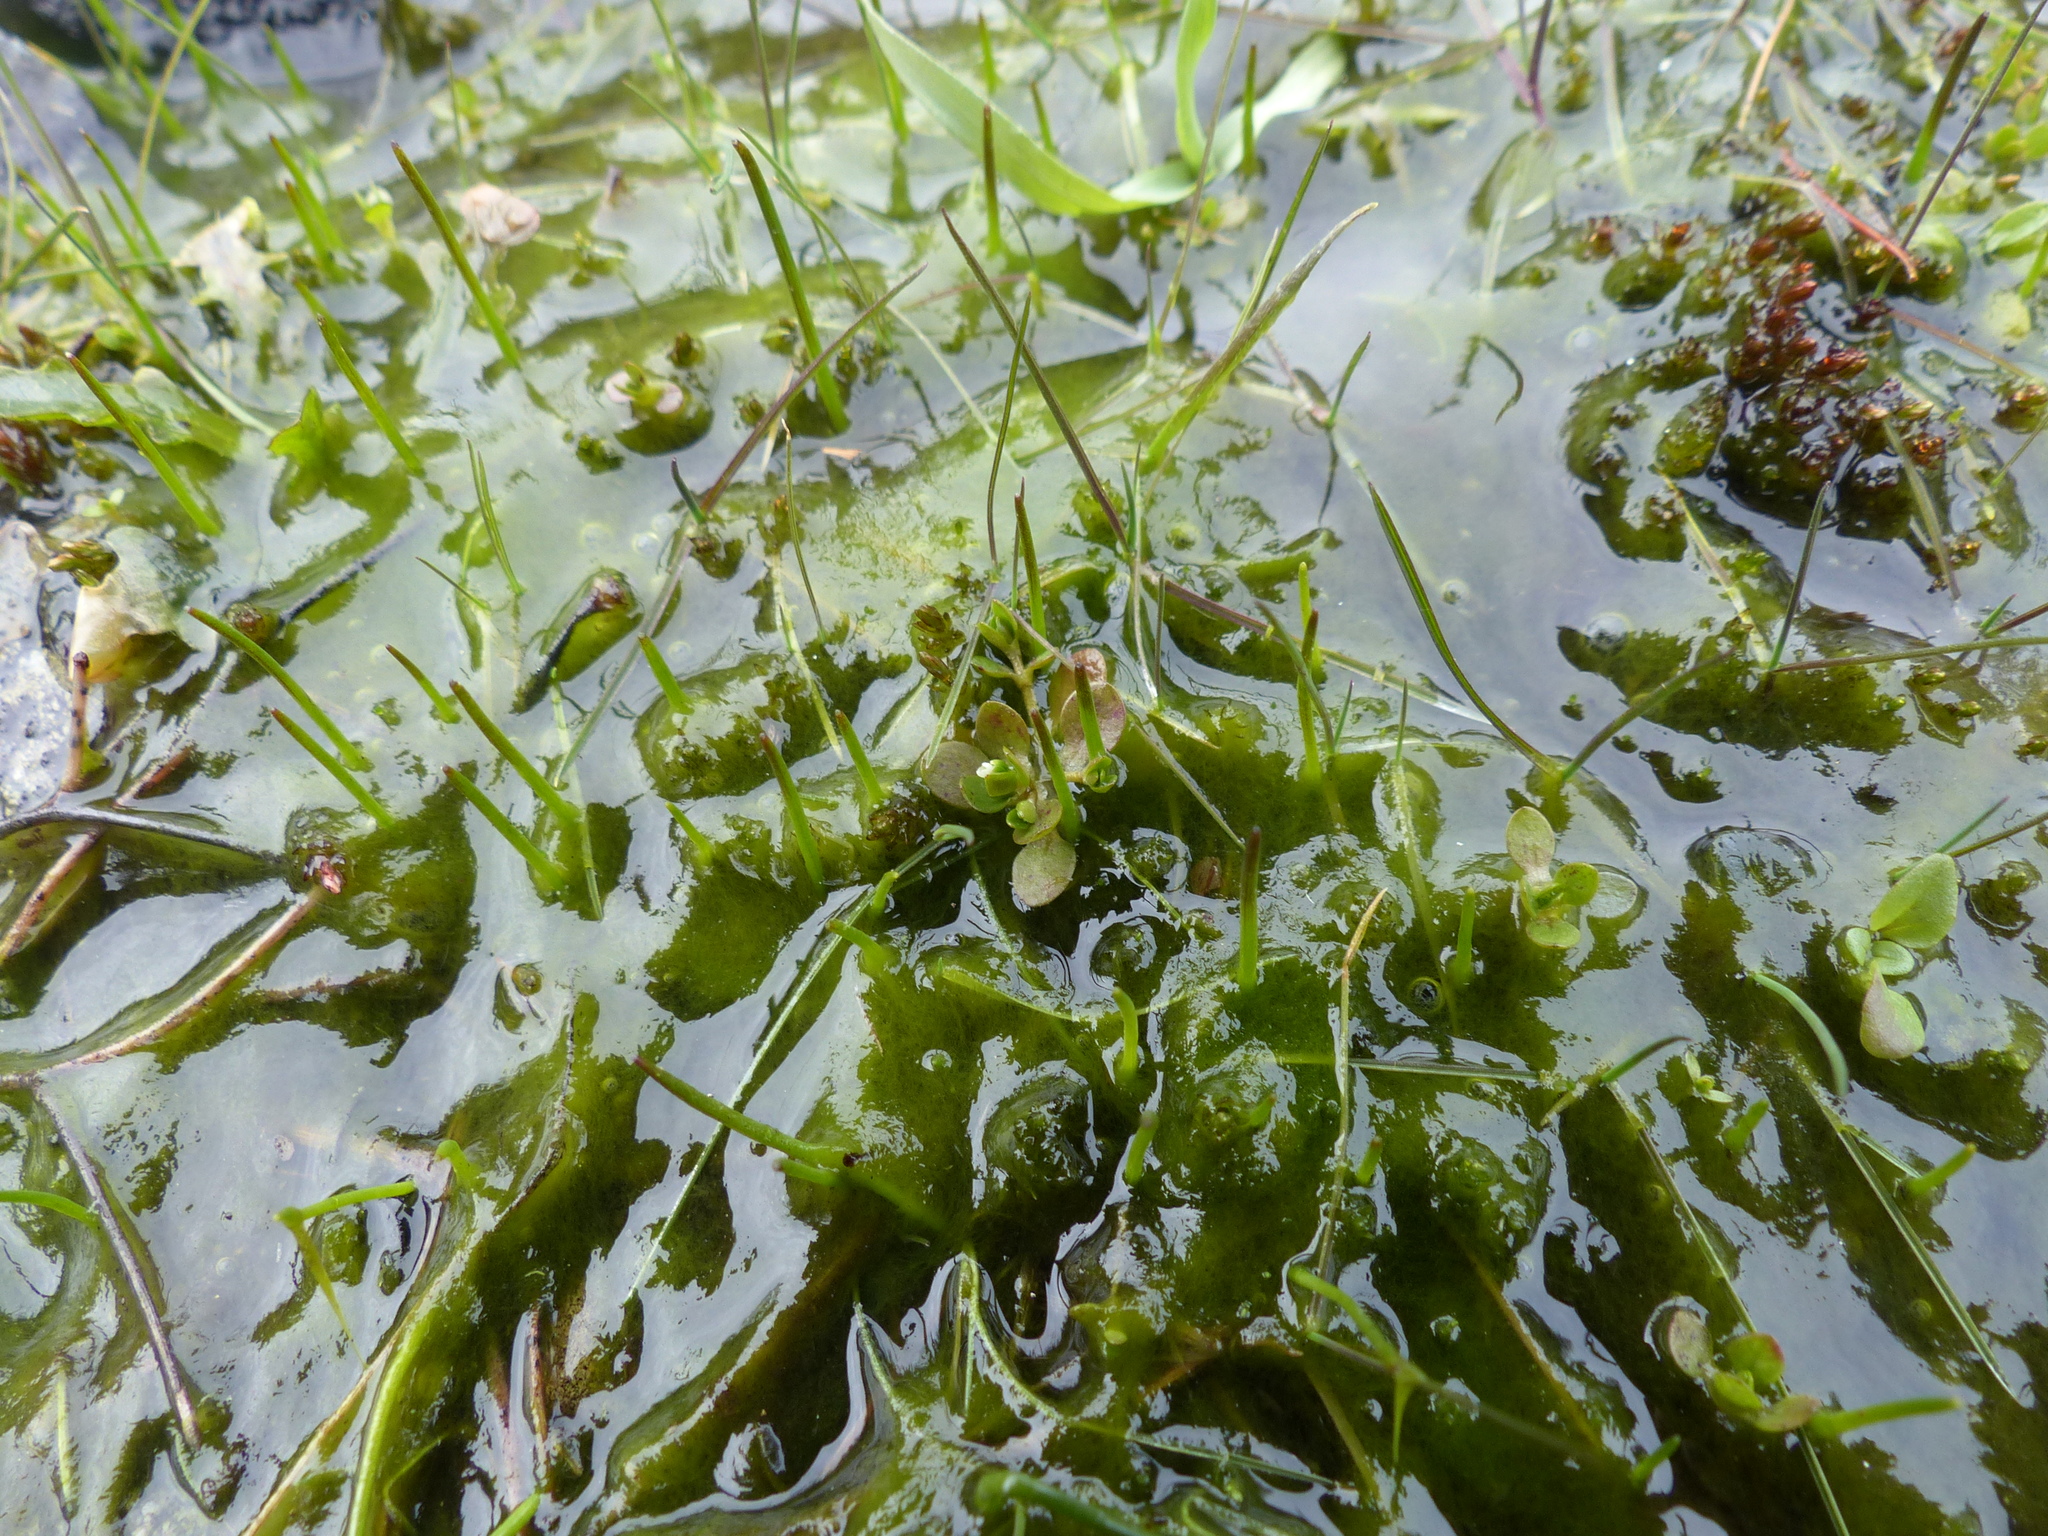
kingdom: Plantae
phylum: Tracheophyta
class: Magnoliopsida
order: Caryophyllales
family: Montiaceae
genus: Montia
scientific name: Montia fontana
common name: Blinks
